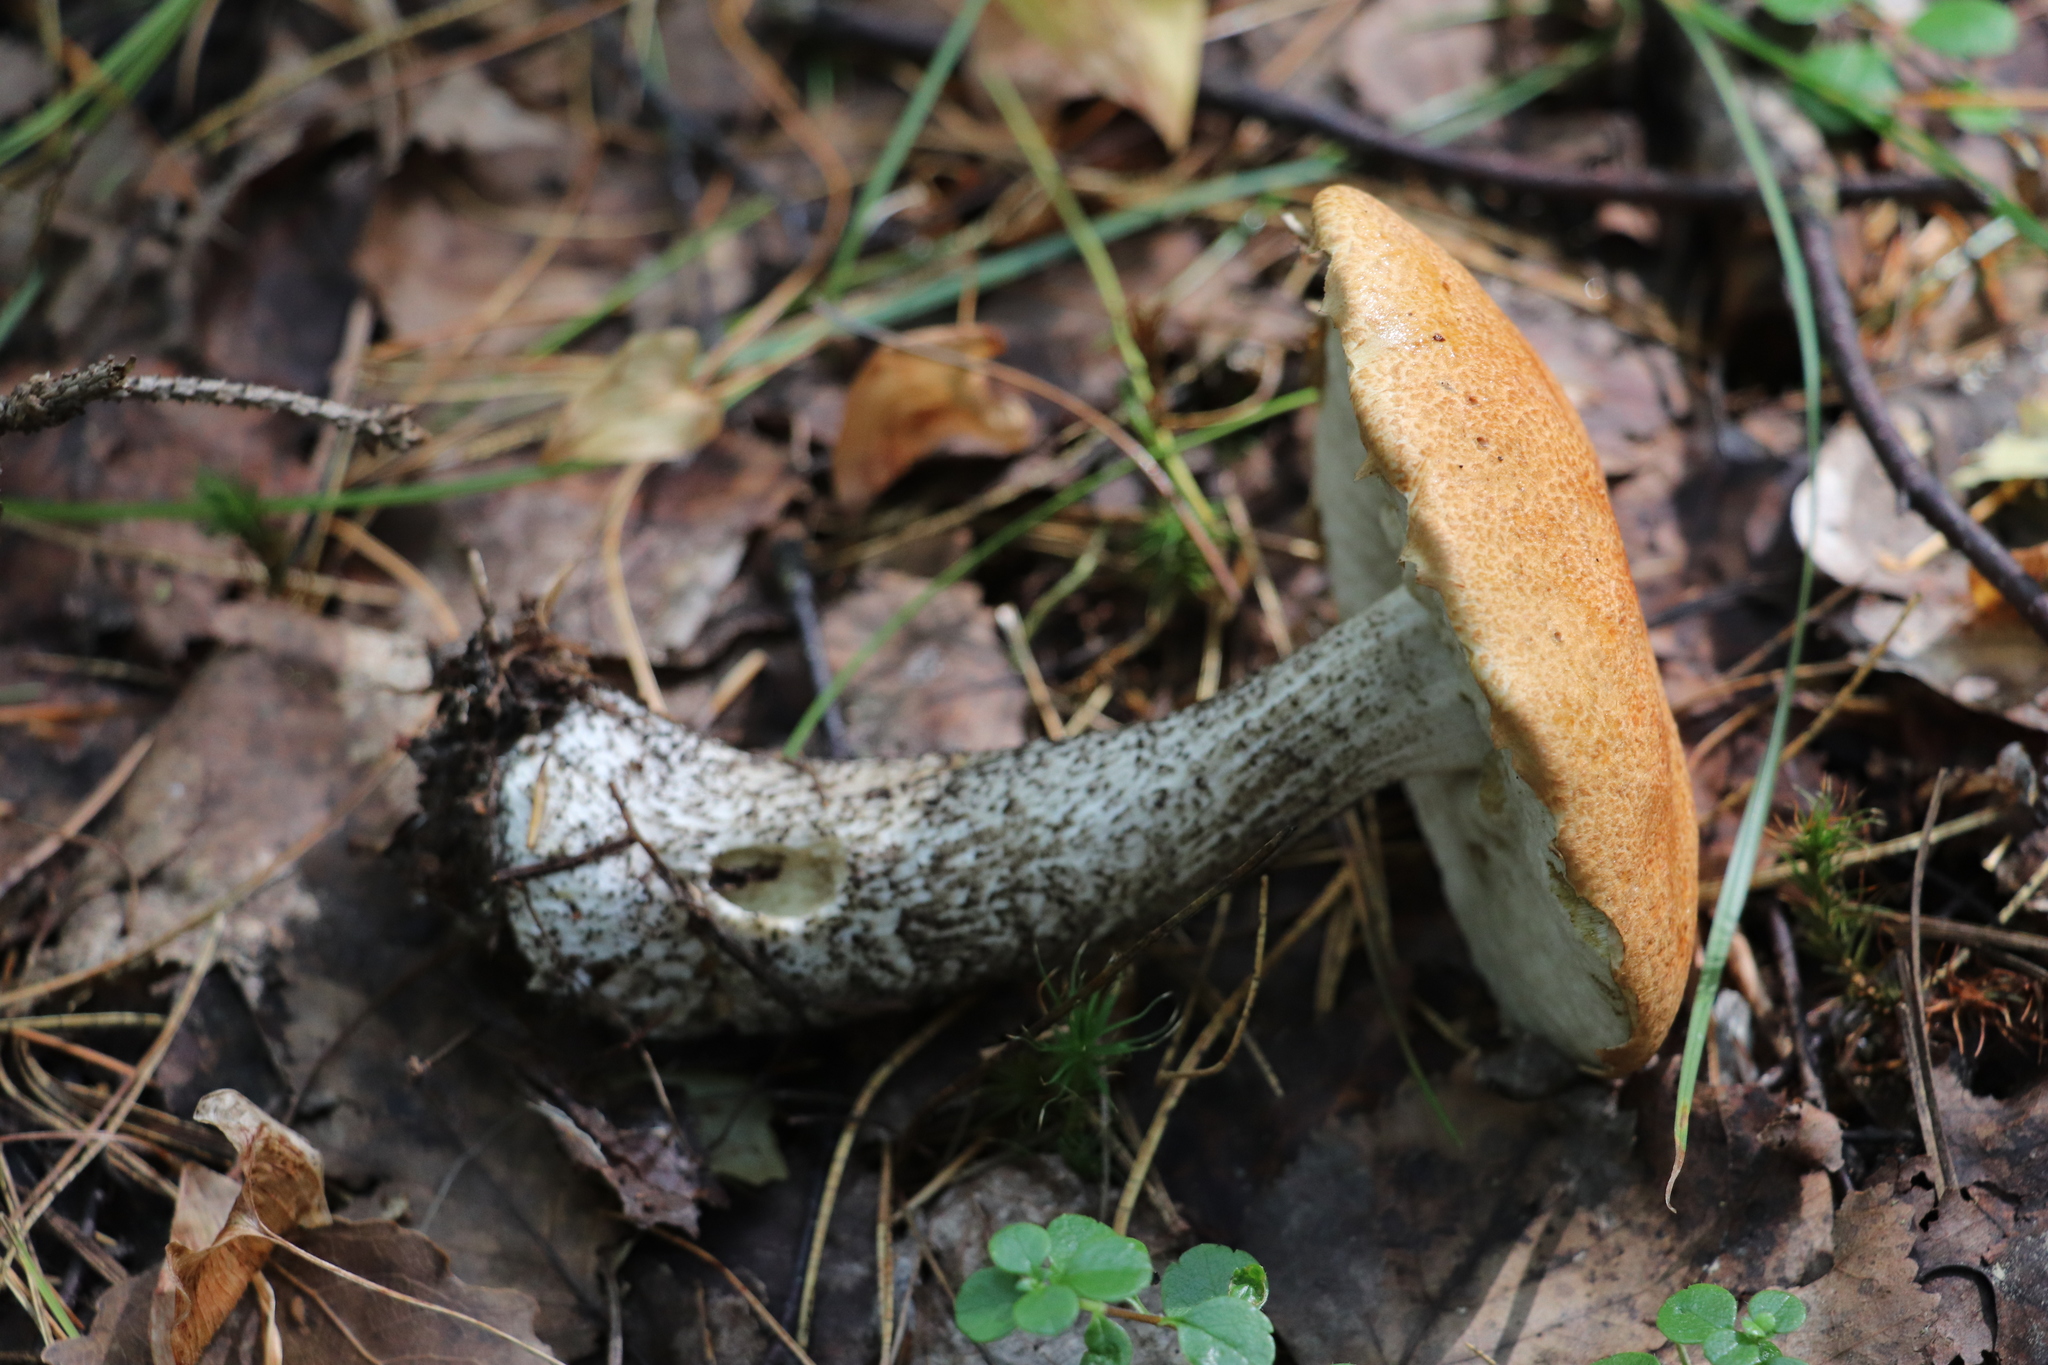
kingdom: Fungi
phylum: Basidiomycota
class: Agaricomycetes
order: Boletales
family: Boletaceae
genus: Leccinum
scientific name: Leccinum versipelle
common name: Orange birch bolete
